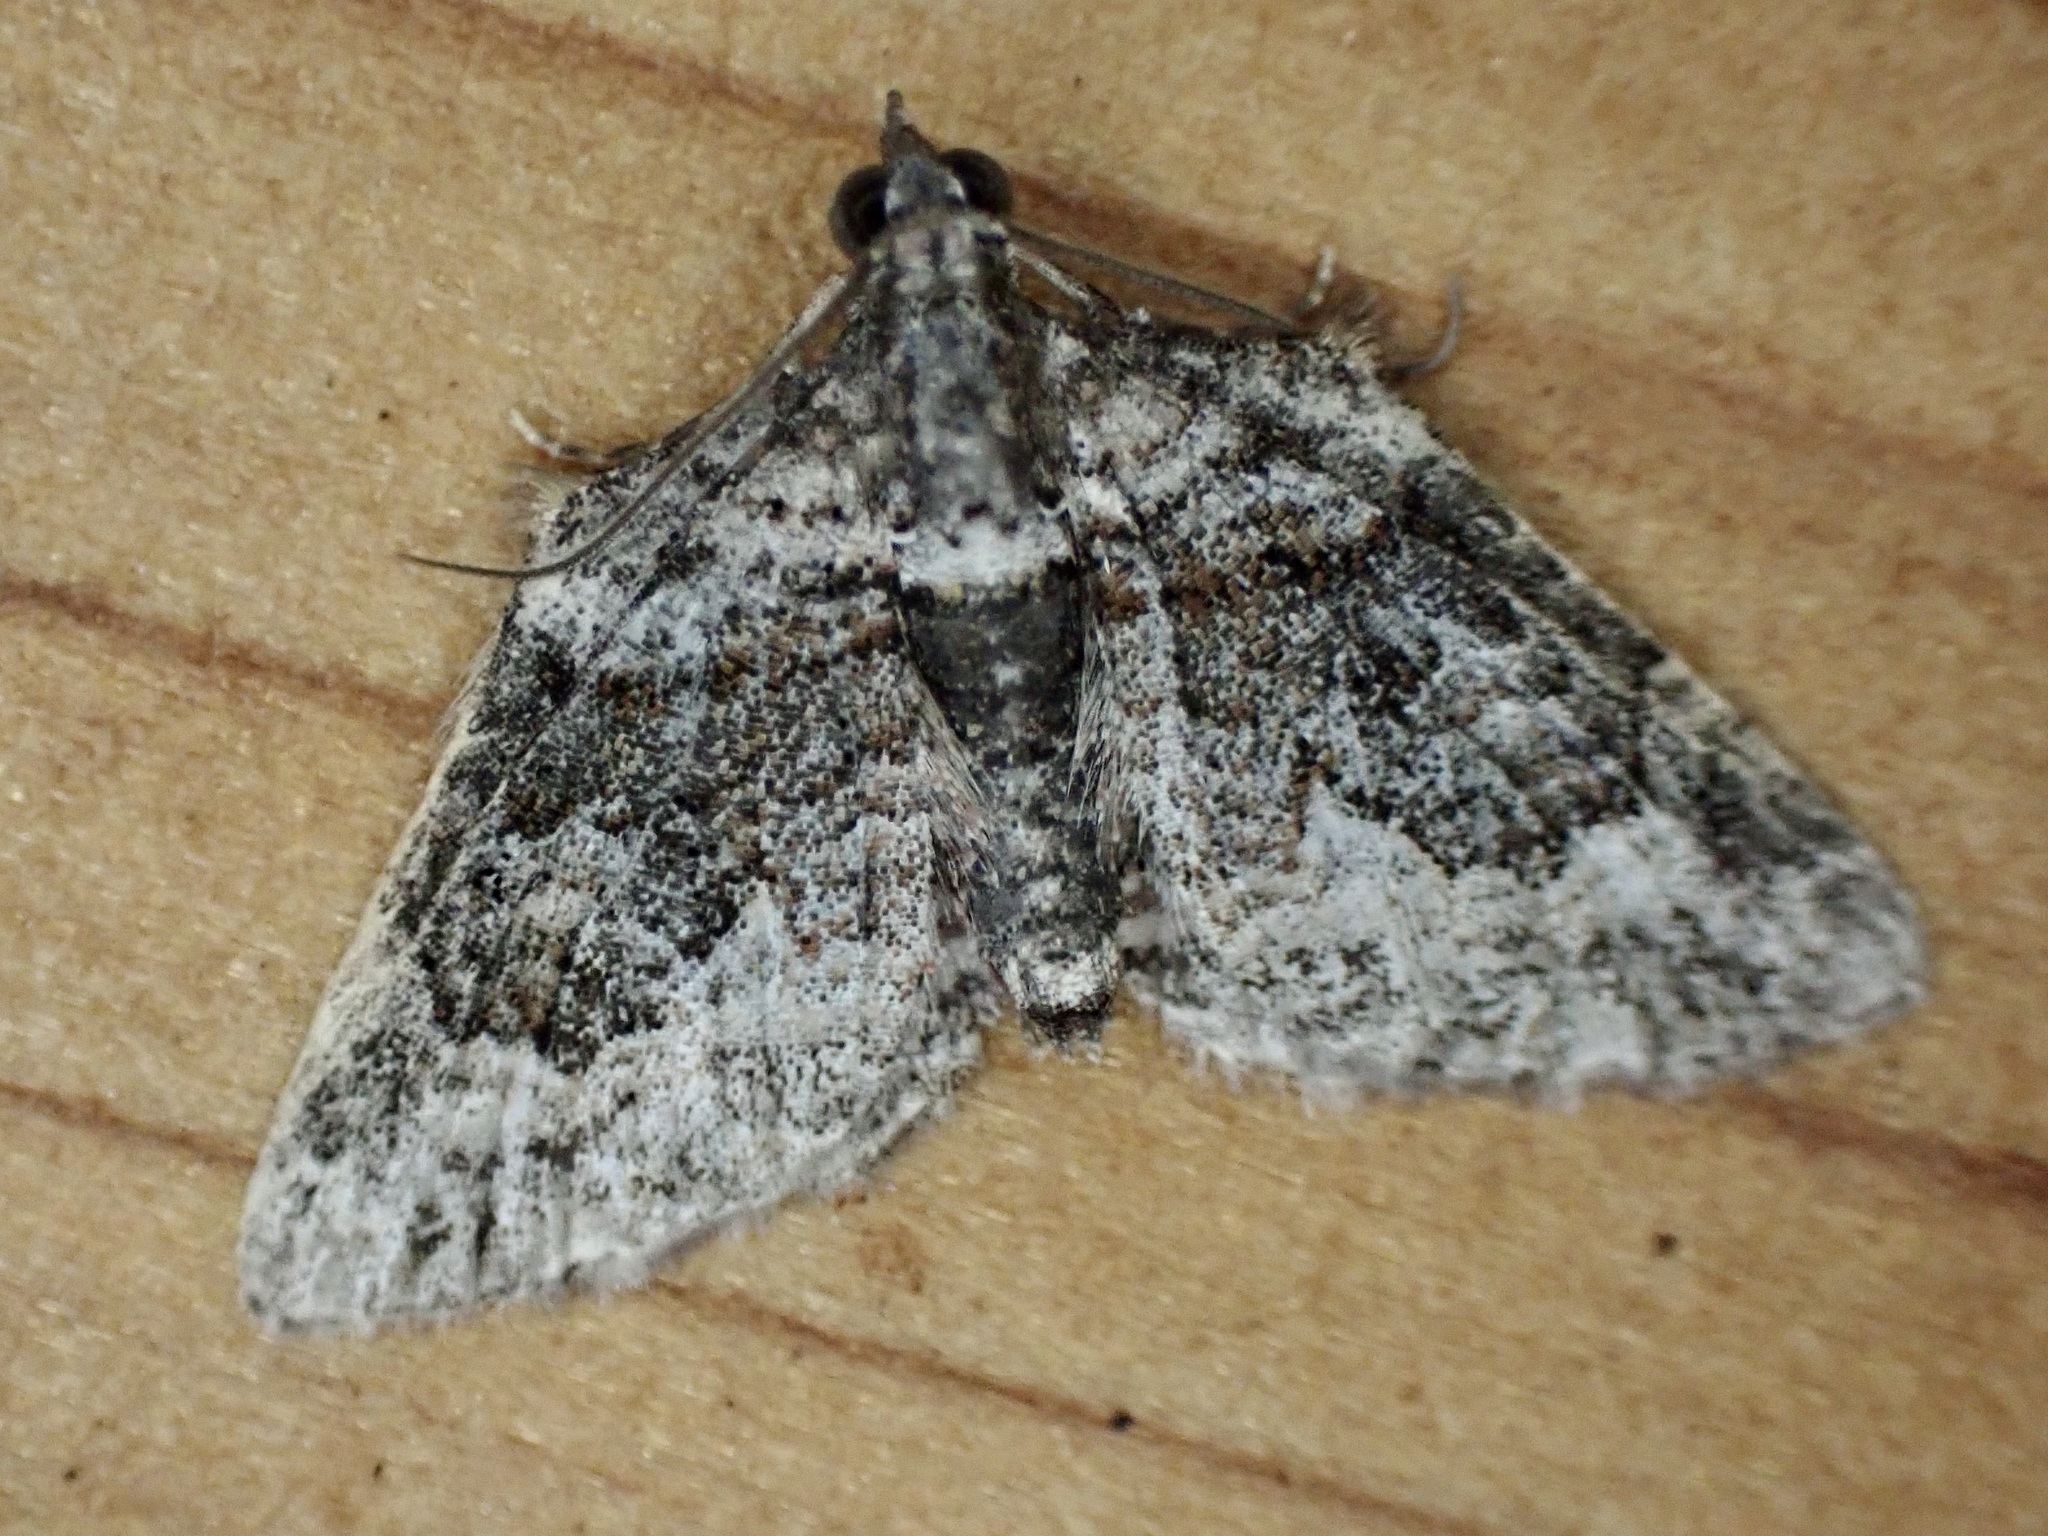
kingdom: Animalia
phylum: Arthropoda
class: Insecta
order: Lepidoptera
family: Geometridae
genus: Phrissogonus
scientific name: Phrissogonus laticostata
